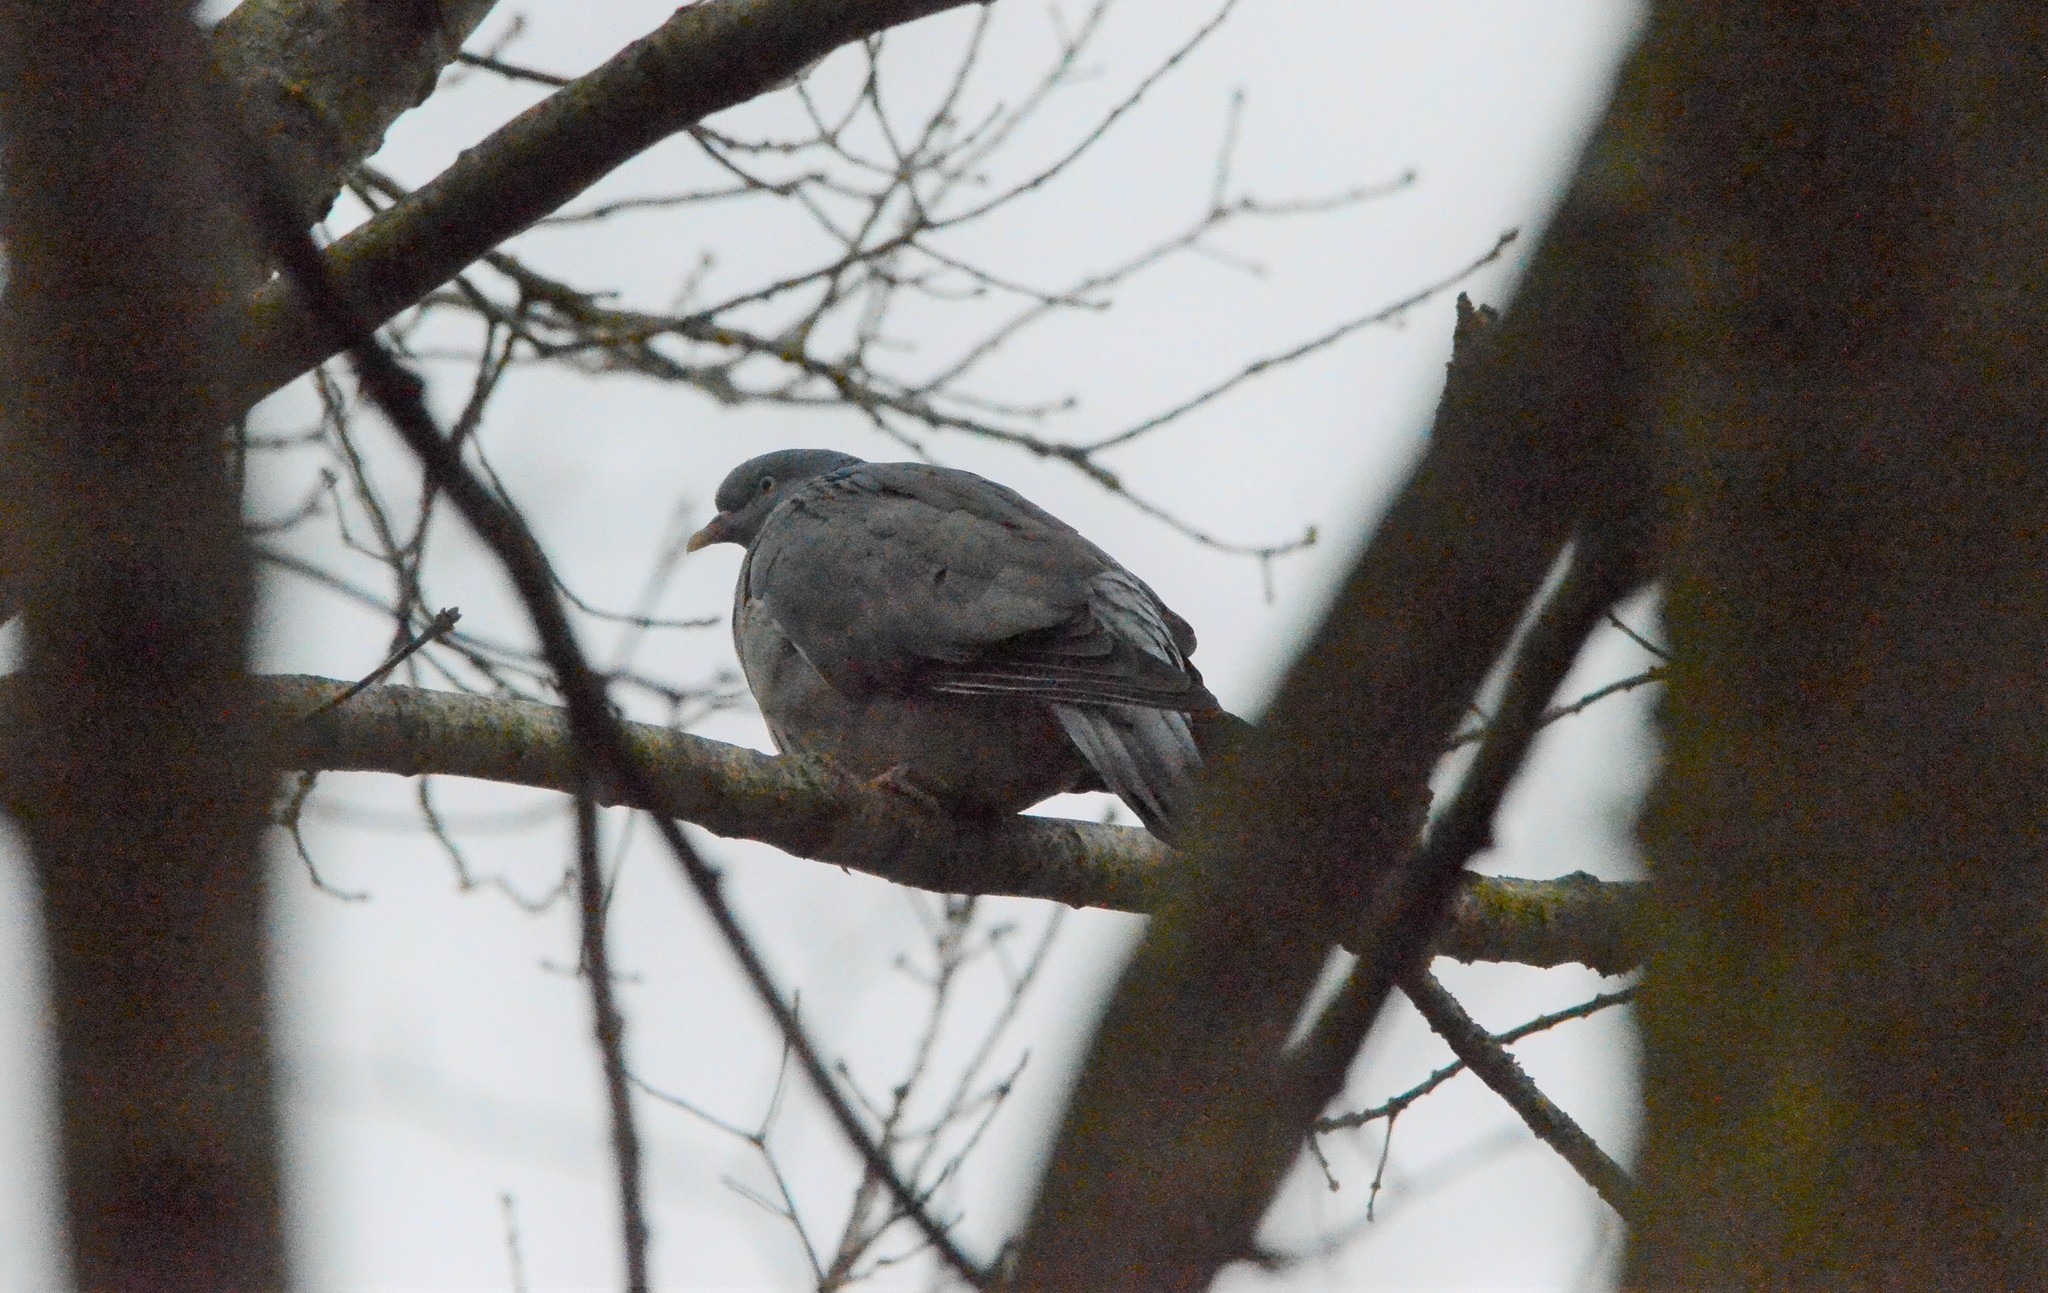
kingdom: Animalia
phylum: Chordata
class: Aves
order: Columbiformes
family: Columbidae
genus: Columba
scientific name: Columba palumbus
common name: Common wood pigeon
